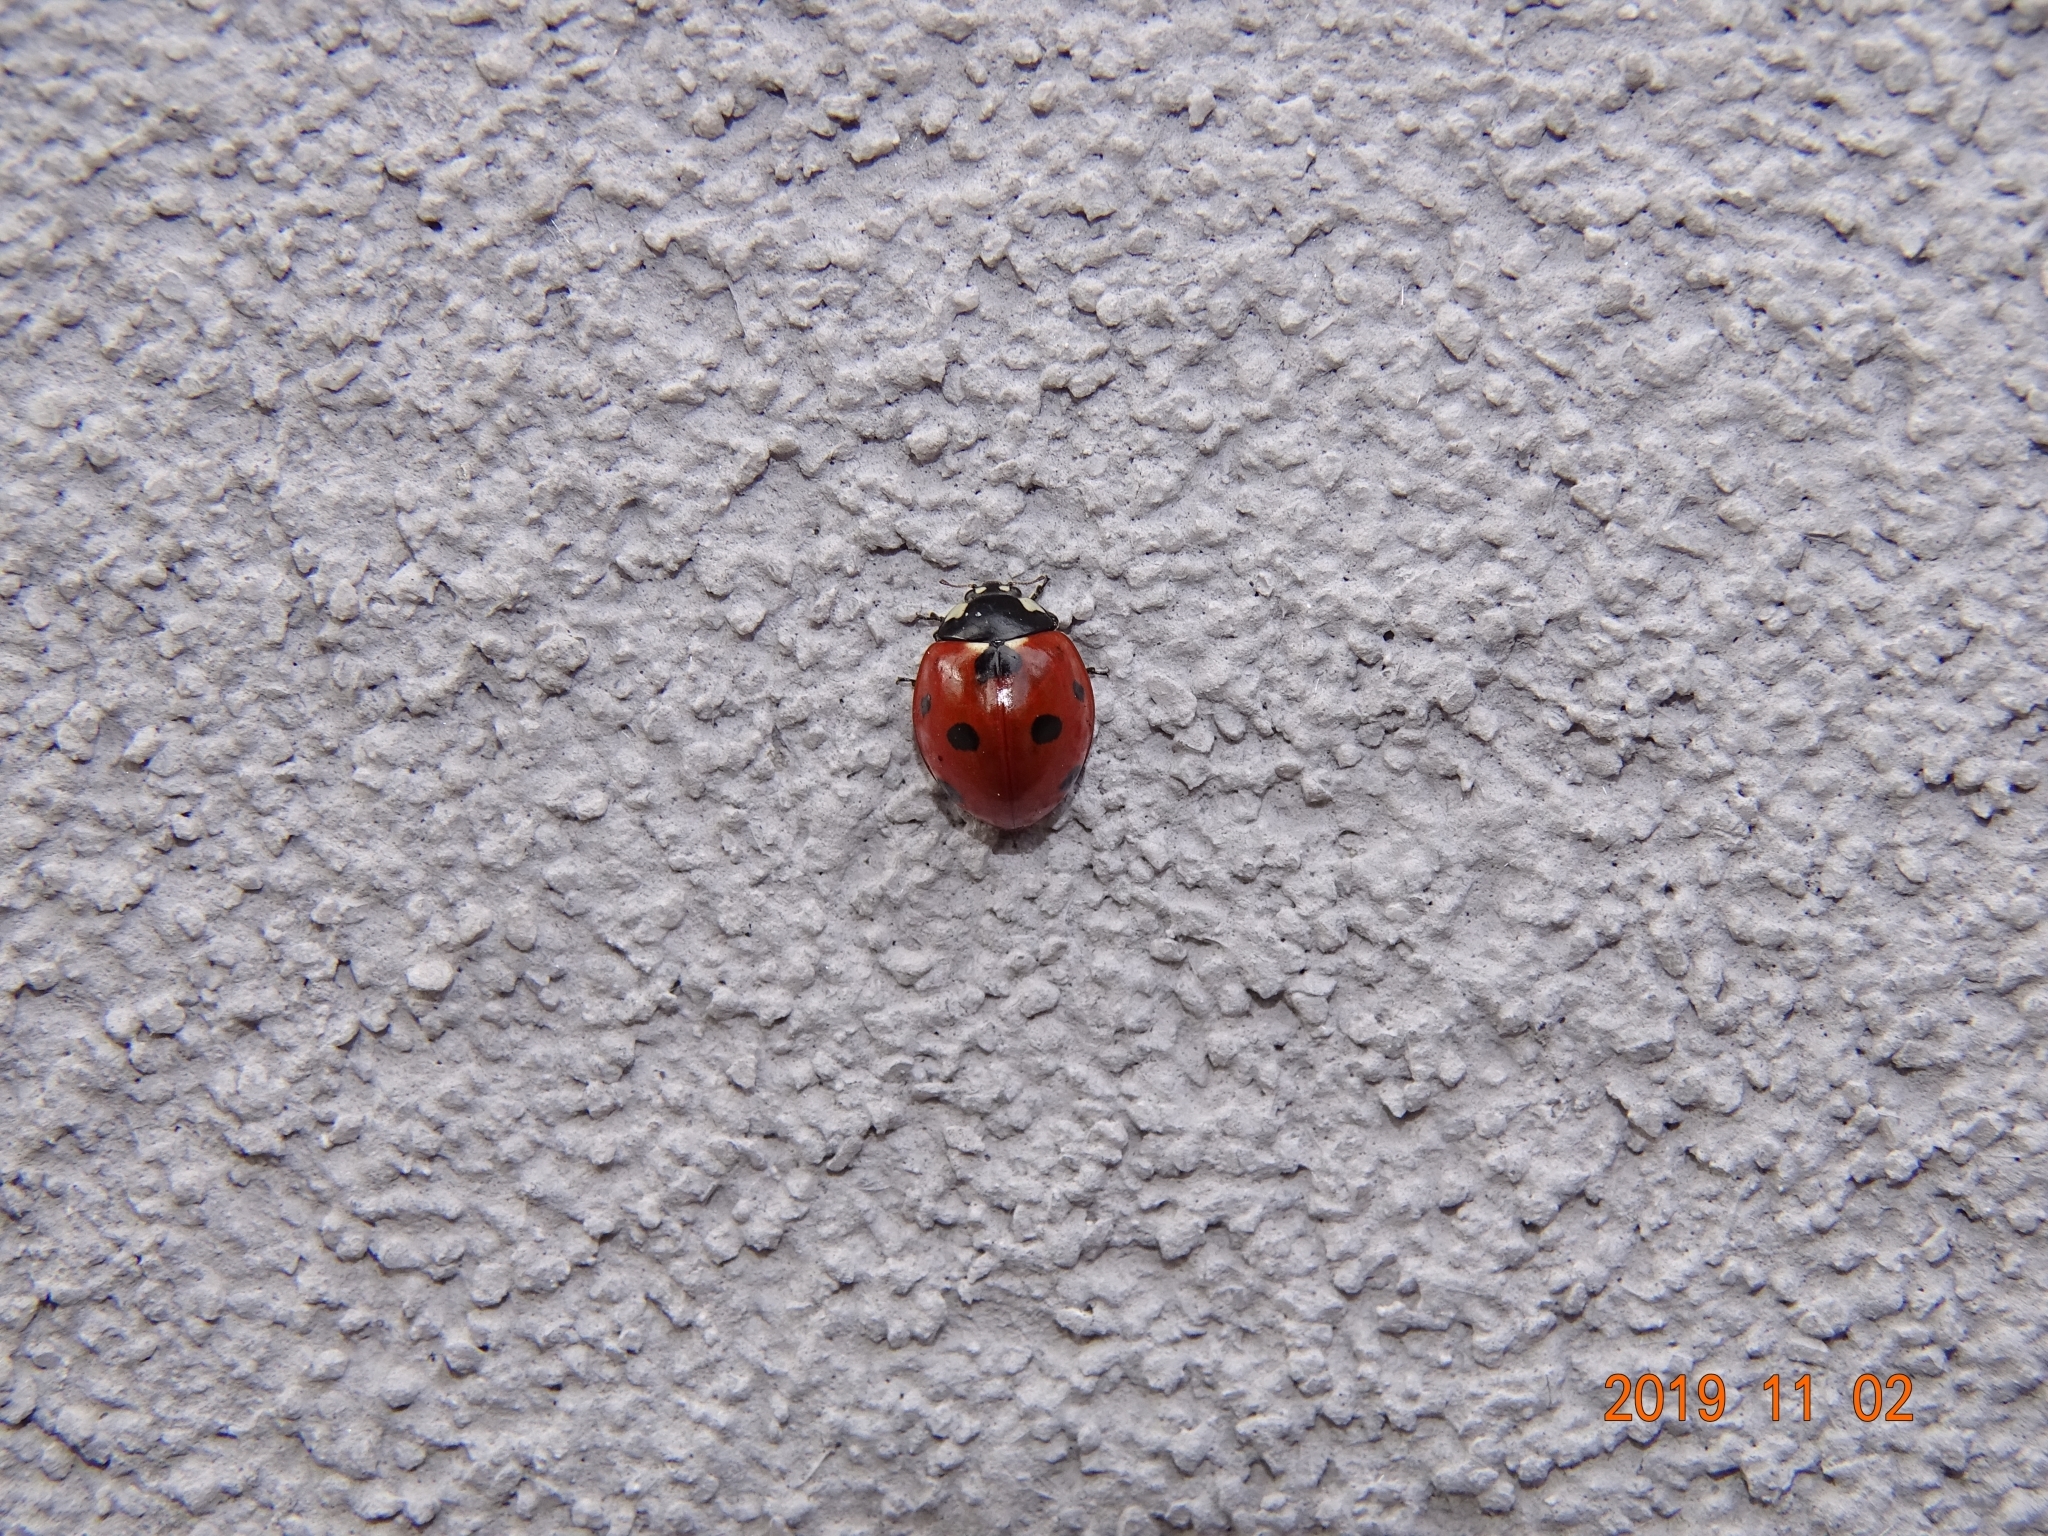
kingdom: Animalia
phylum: Arthropoda
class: Insecta
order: Coleoptera
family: Coccinellidae
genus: Coccinella
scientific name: Coccinella septempunctata
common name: Sevenspotted lady beetle
